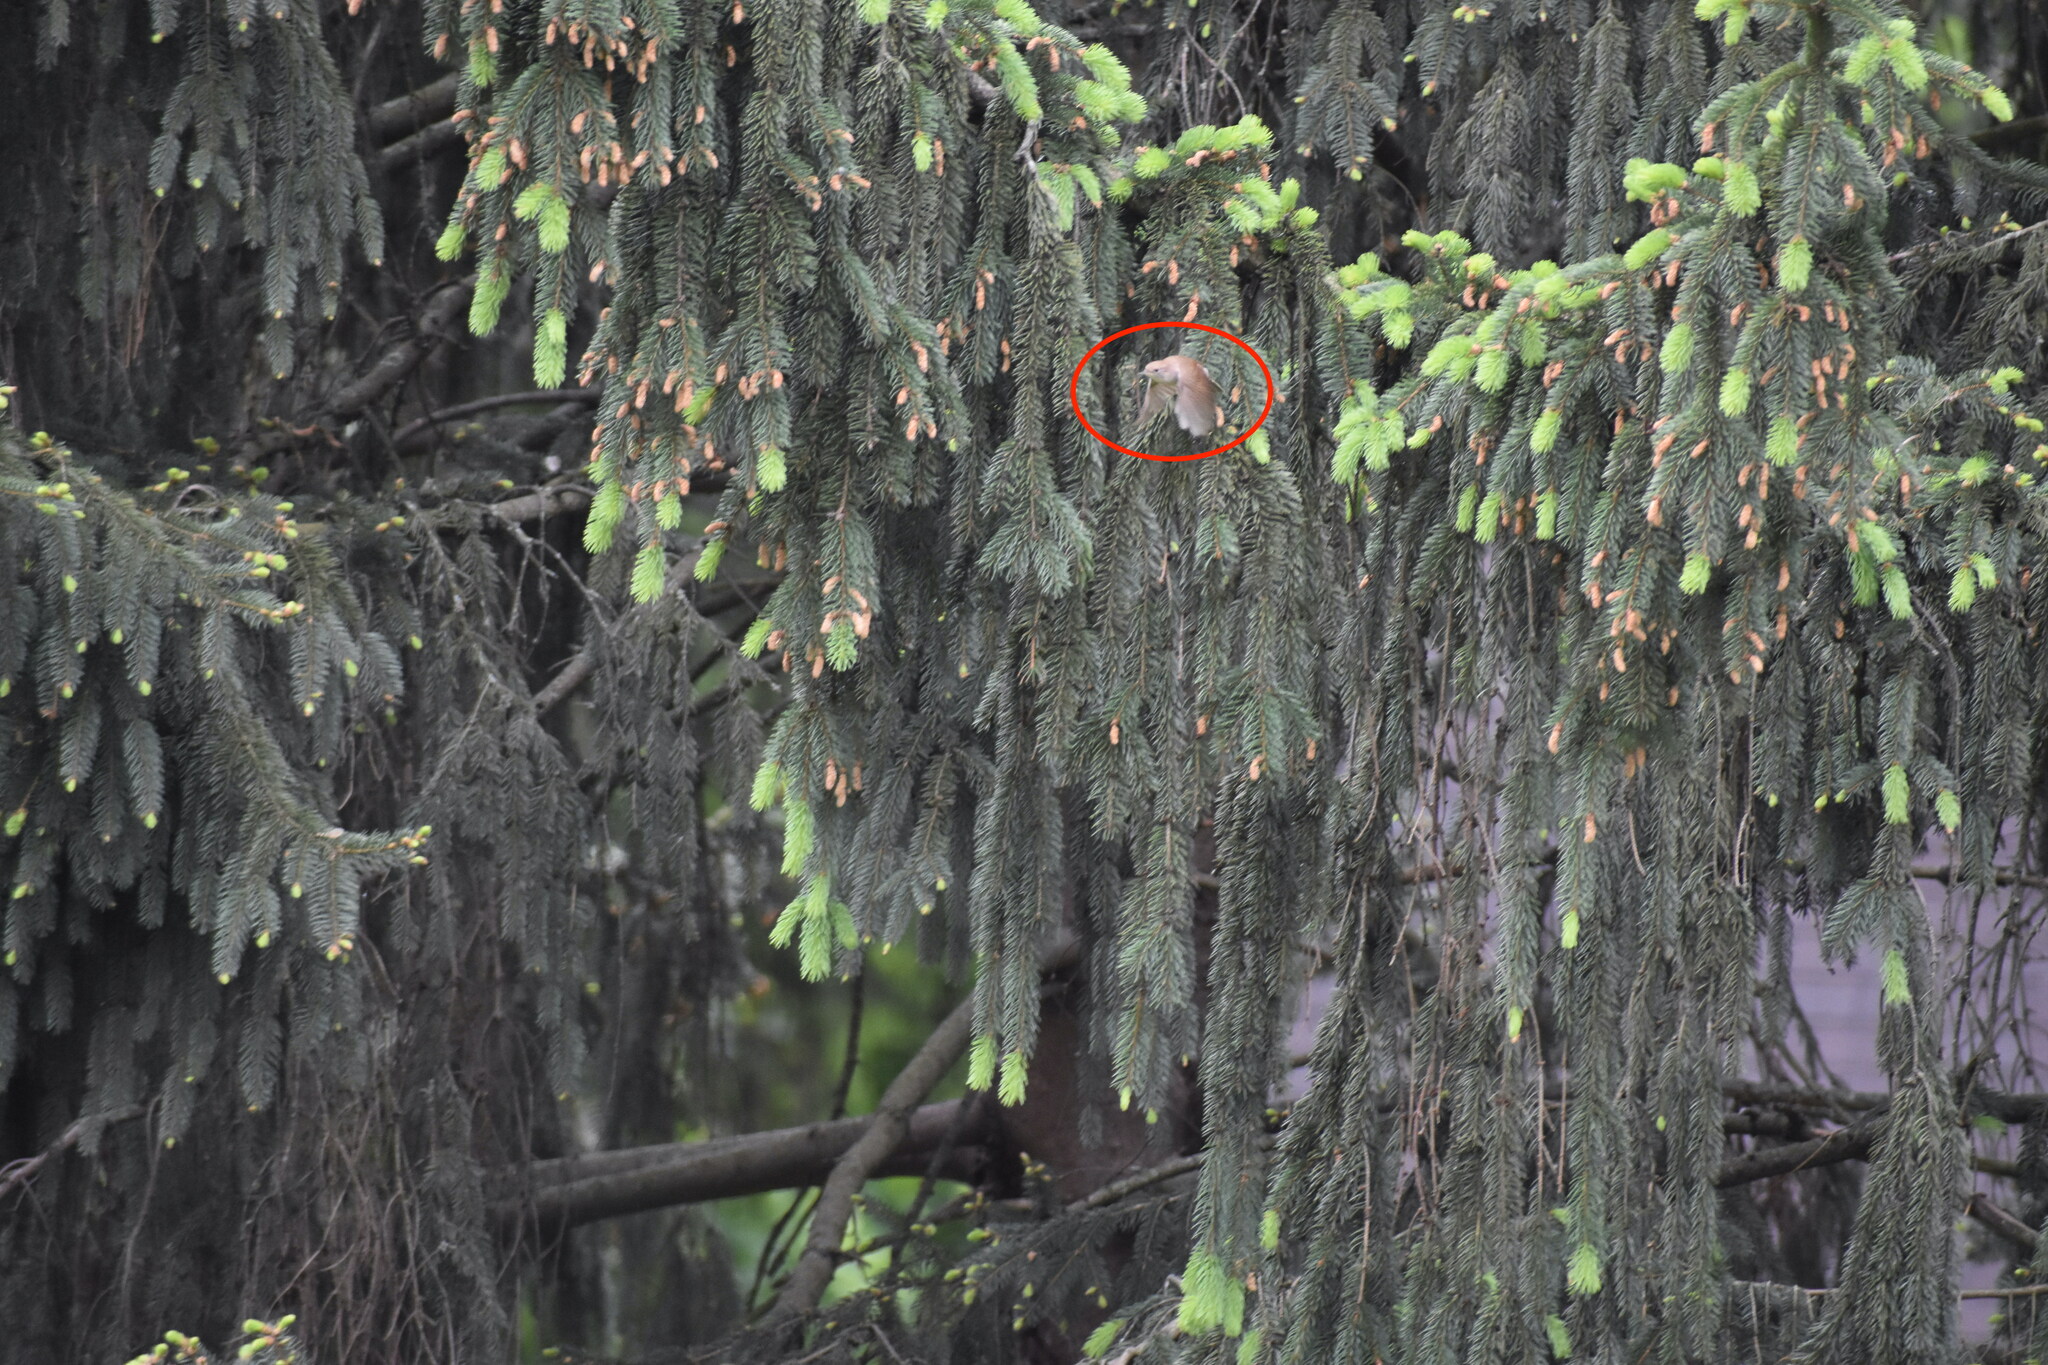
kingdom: Animalia
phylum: Chordata
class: Aves
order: Passeriformes
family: Troglodytidae
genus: Troglodytes
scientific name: Troglodytes aedon
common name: House wren
